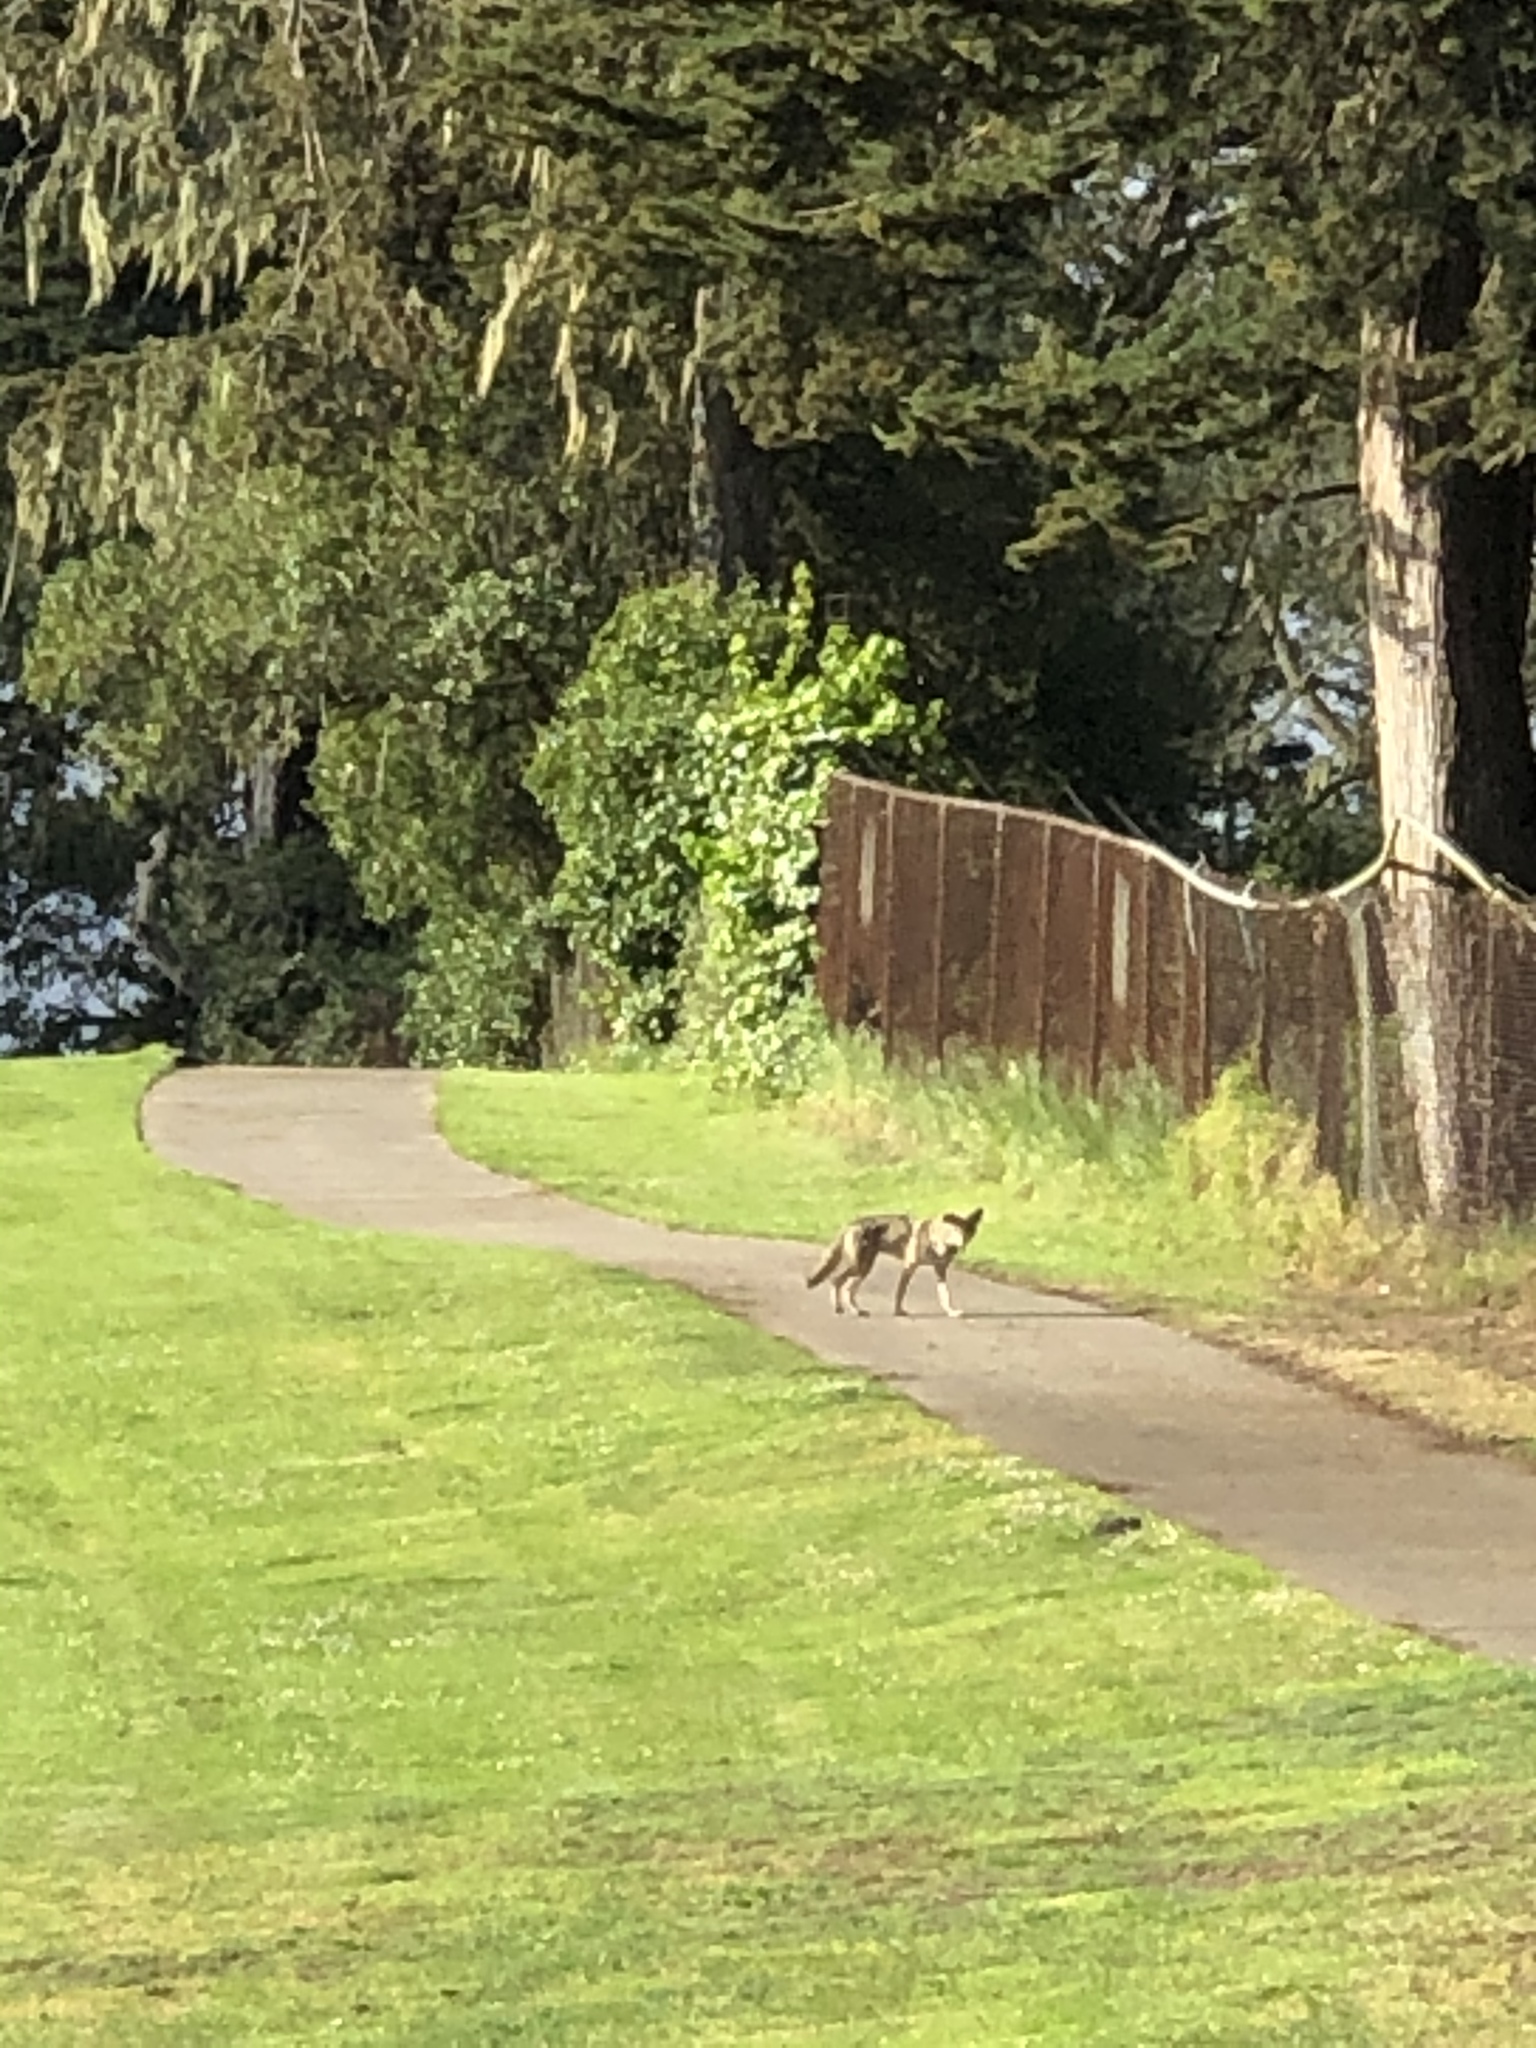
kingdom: Animalia
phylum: Chordata
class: Mammalia
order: Carnivora
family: Canidae
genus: Canis
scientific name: Canis latrans
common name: Coyote
